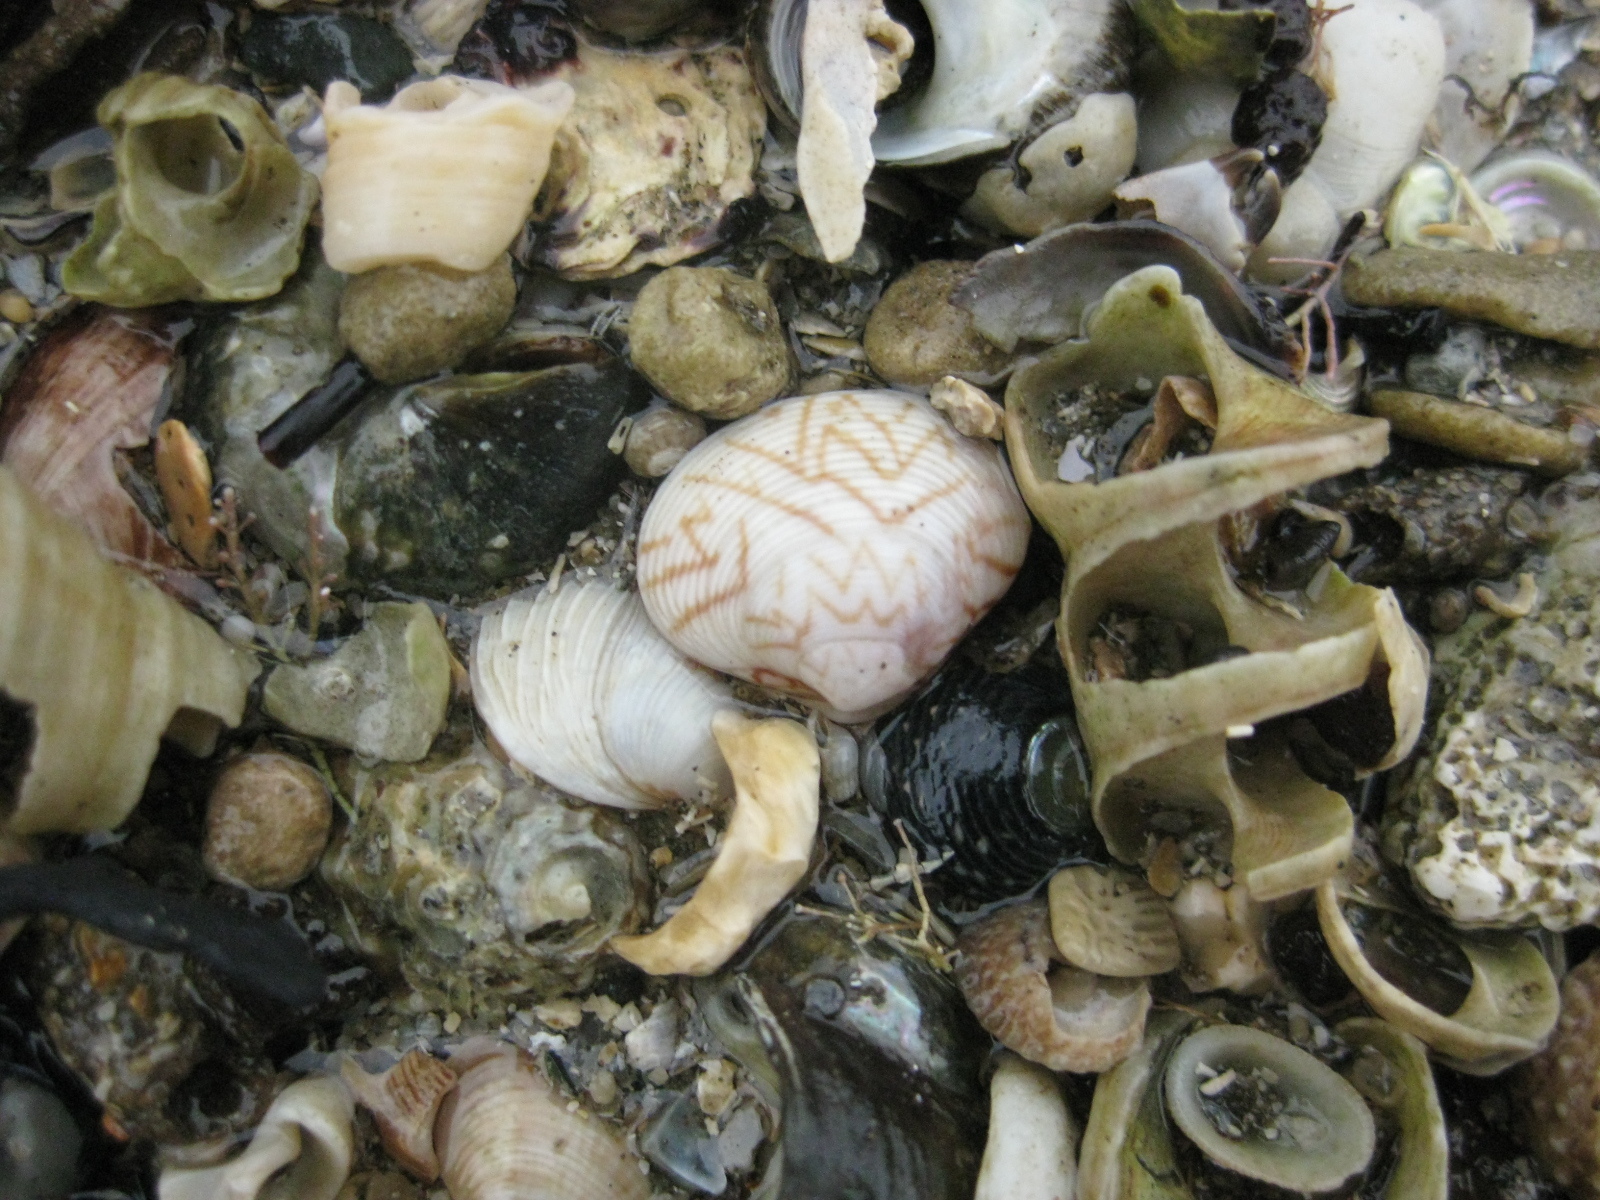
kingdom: Animalia
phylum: Mollusca
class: Bivalvia
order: Venerida
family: Veneridae
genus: Tawera
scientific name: Tawera spissa
